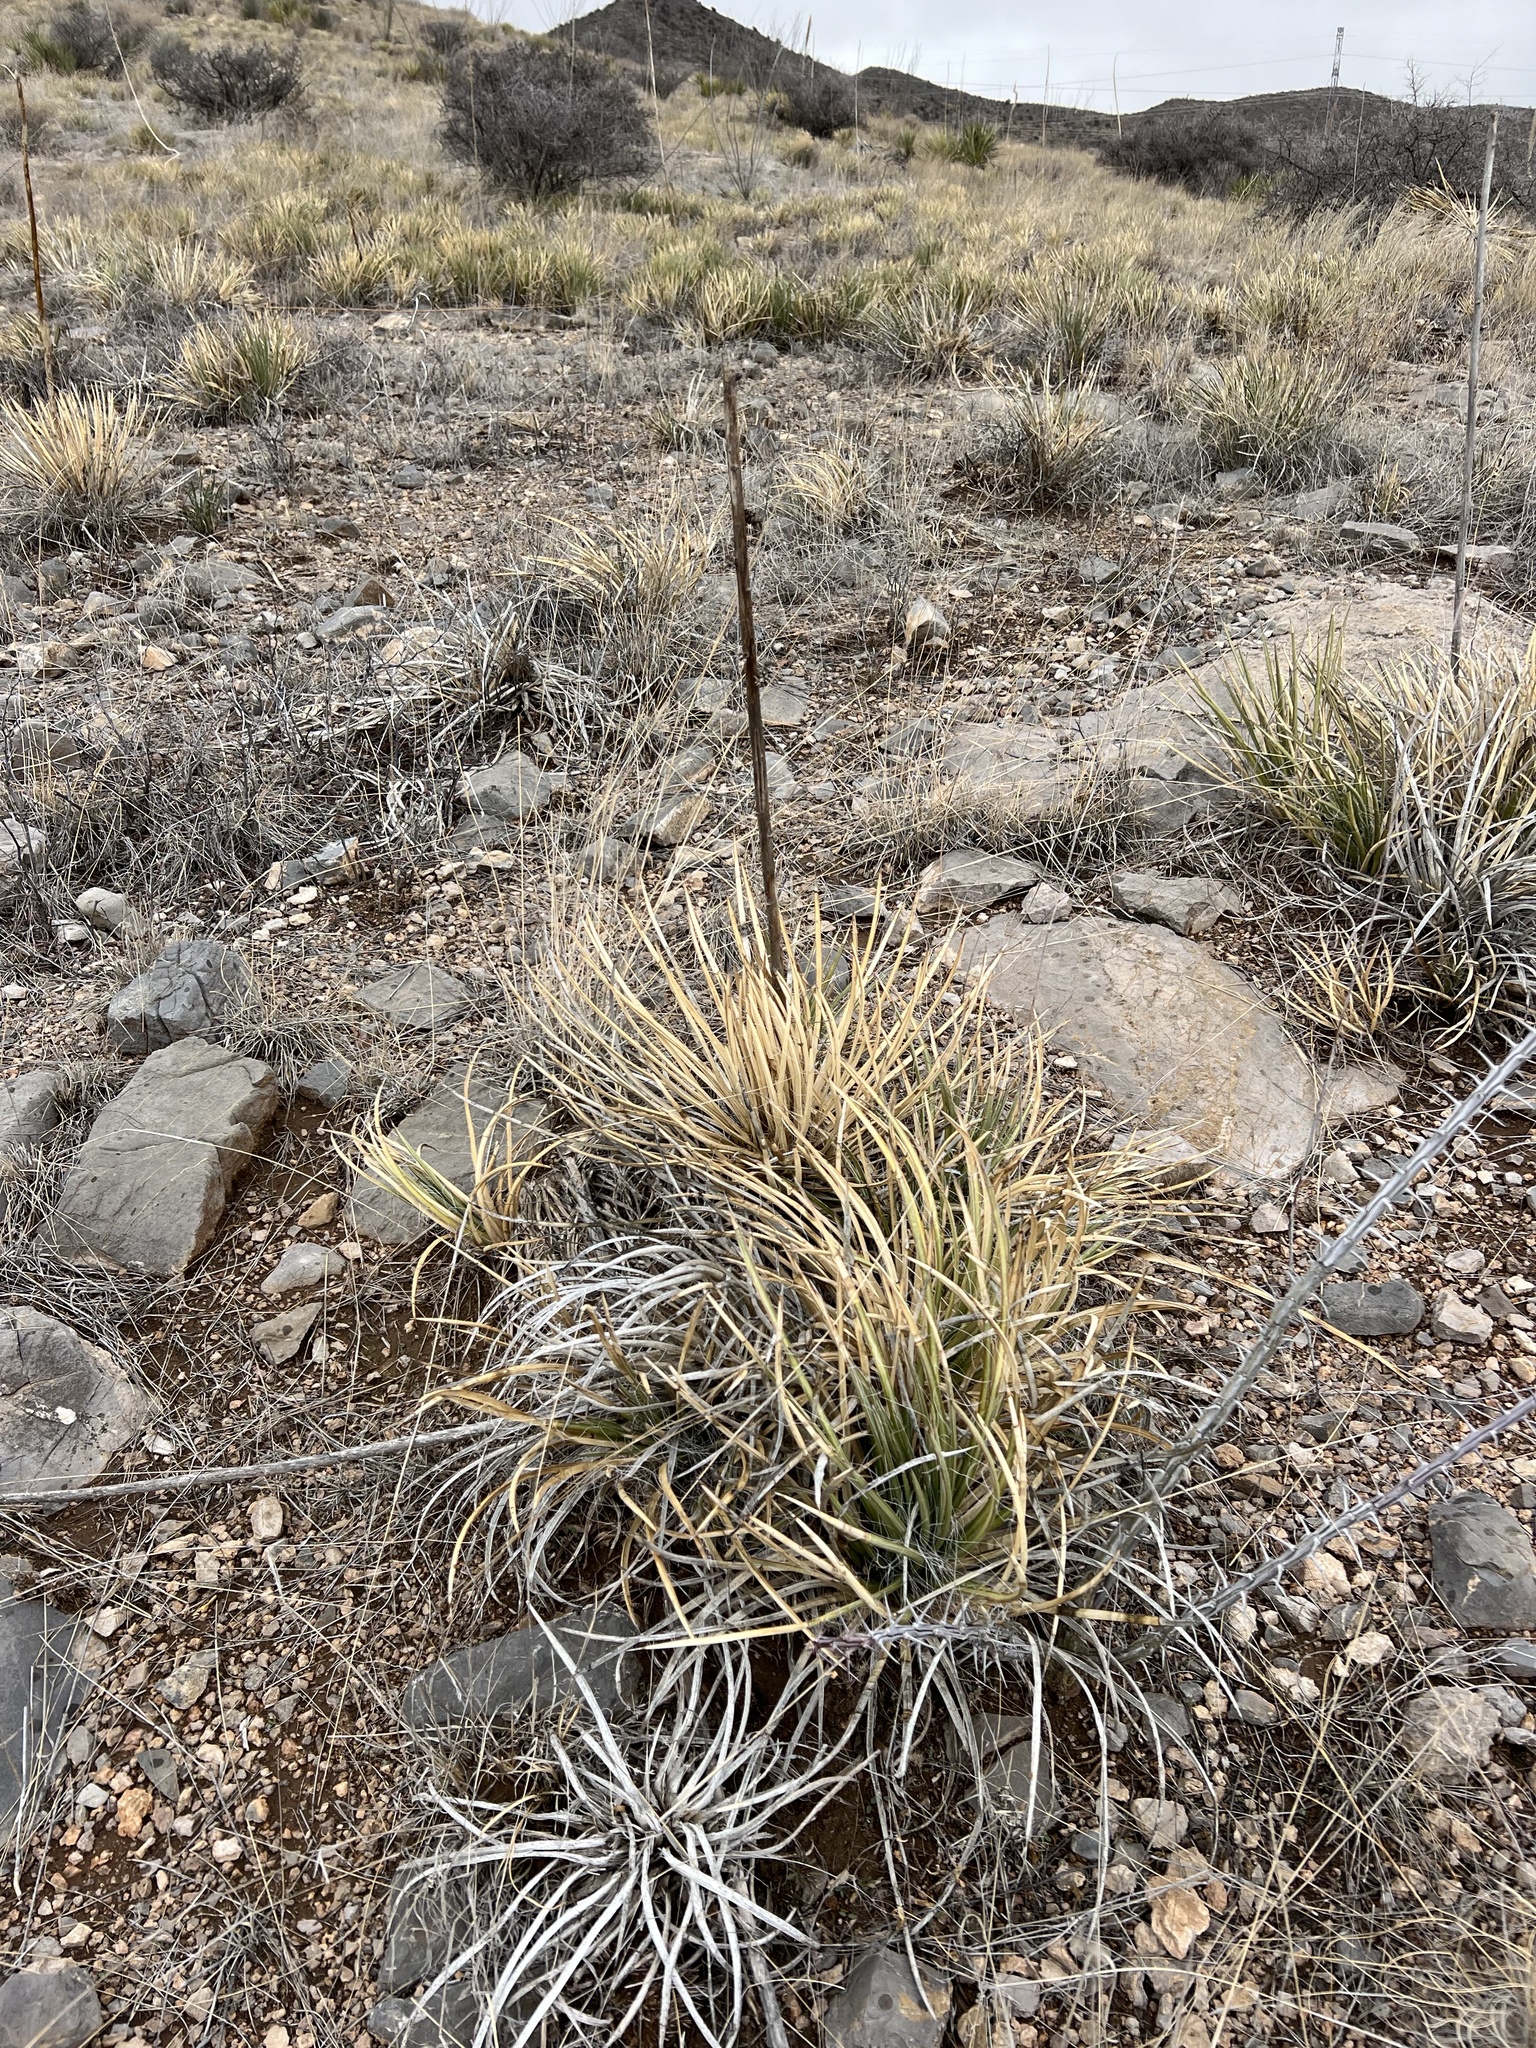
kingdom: Plantae
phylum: Tracheophyta
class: Liliopsida
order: Asparagales
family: Asparagaceae
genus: Agave
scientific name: Agave schottii
